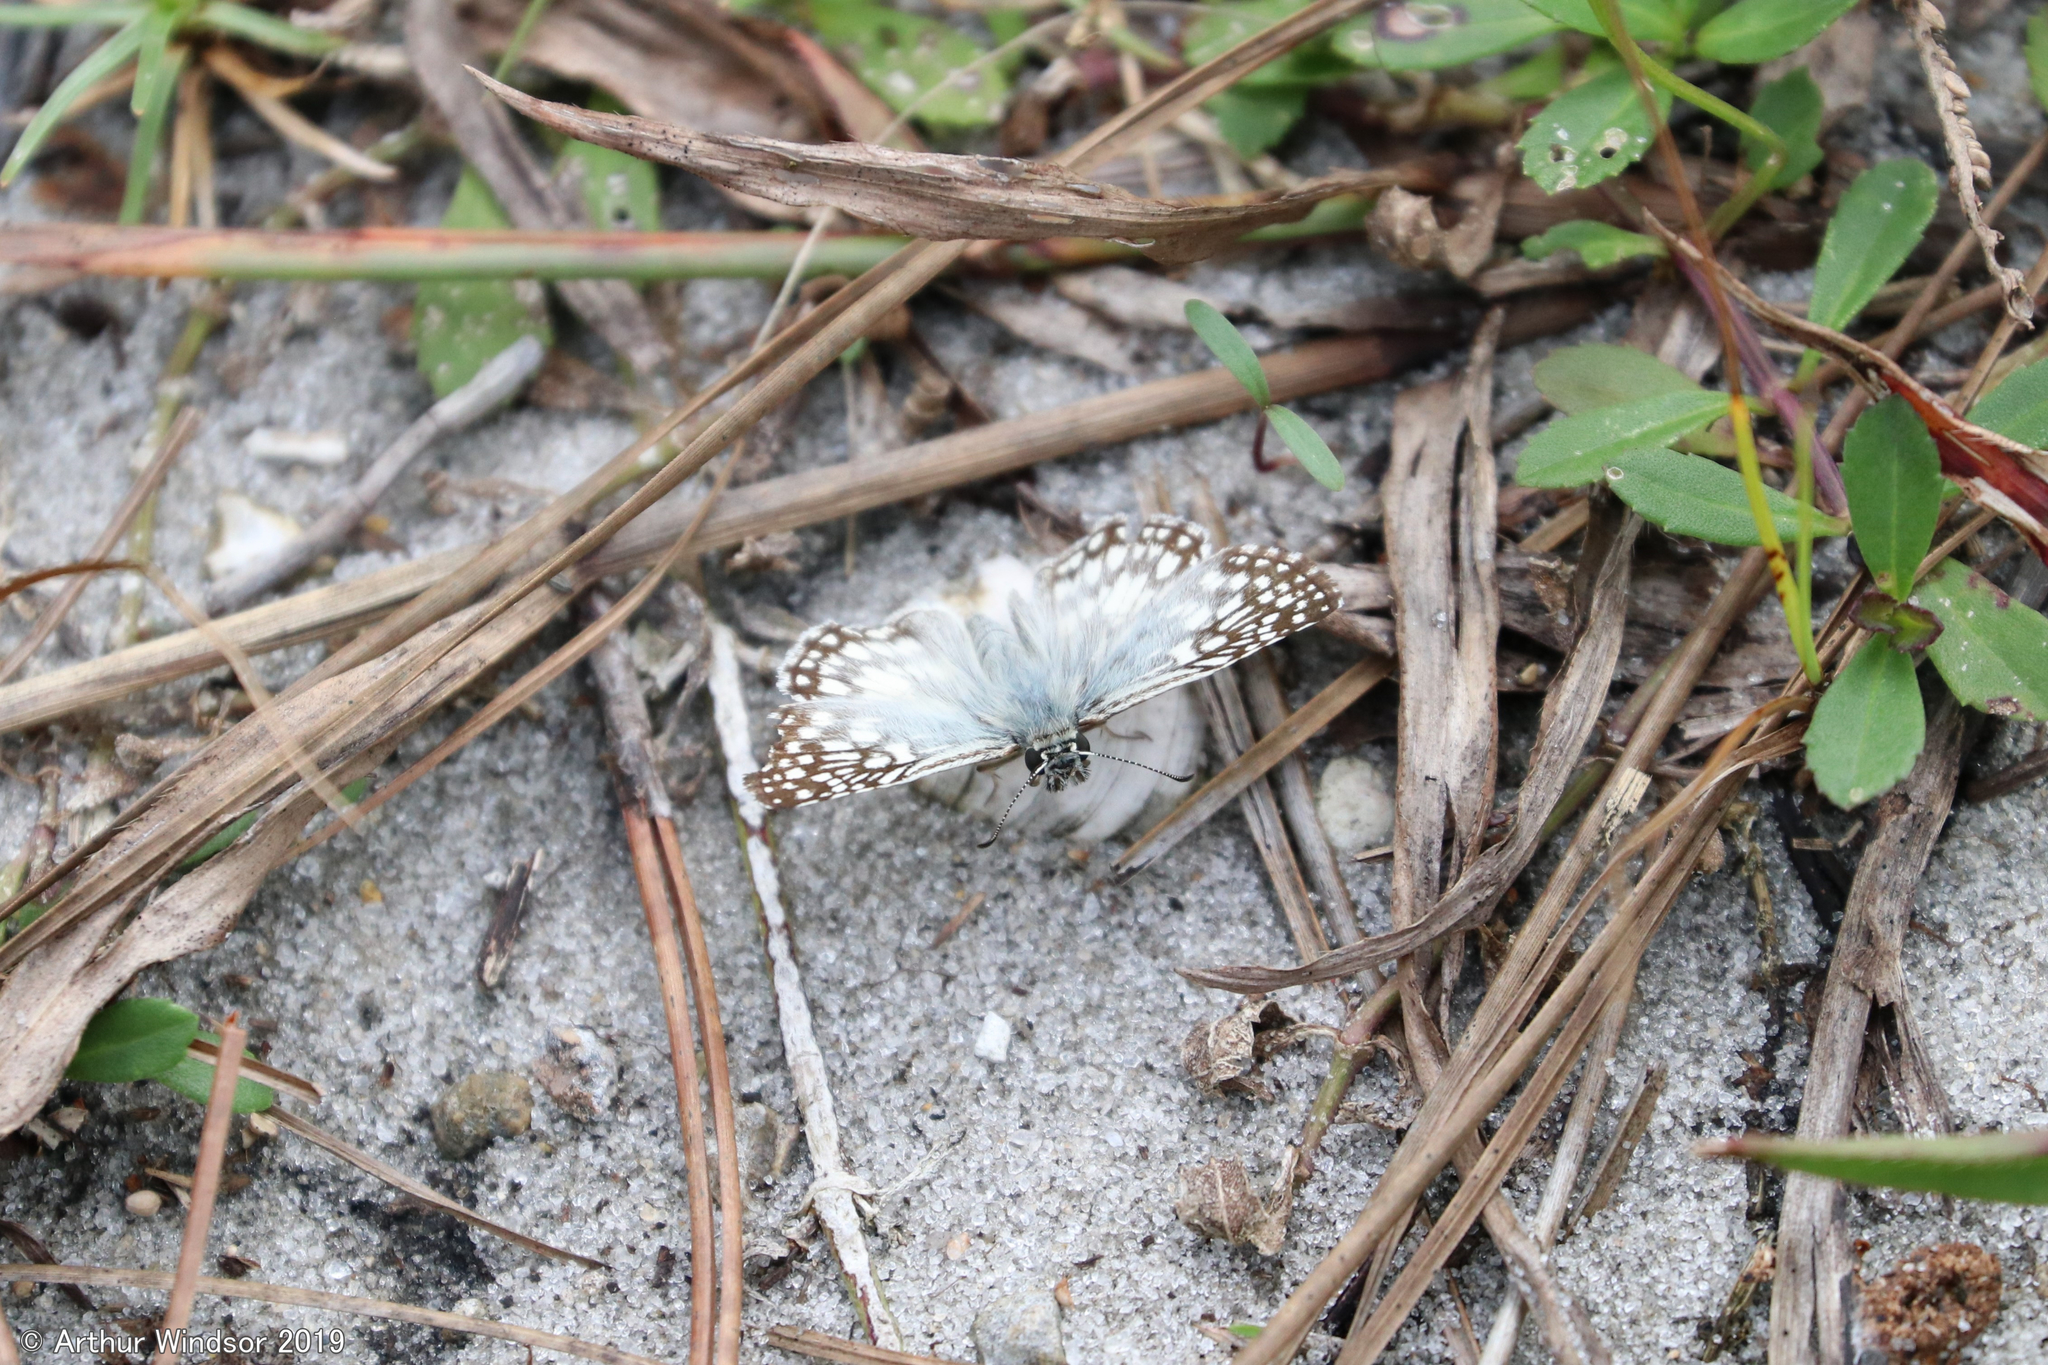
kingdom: Animalia
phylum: Arthropoda
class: Insecta
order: Lepidoptera
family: Hesperiidae
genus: Pyrgus
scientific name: Pyrgus oileus
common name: Tropical checkered-skipper
